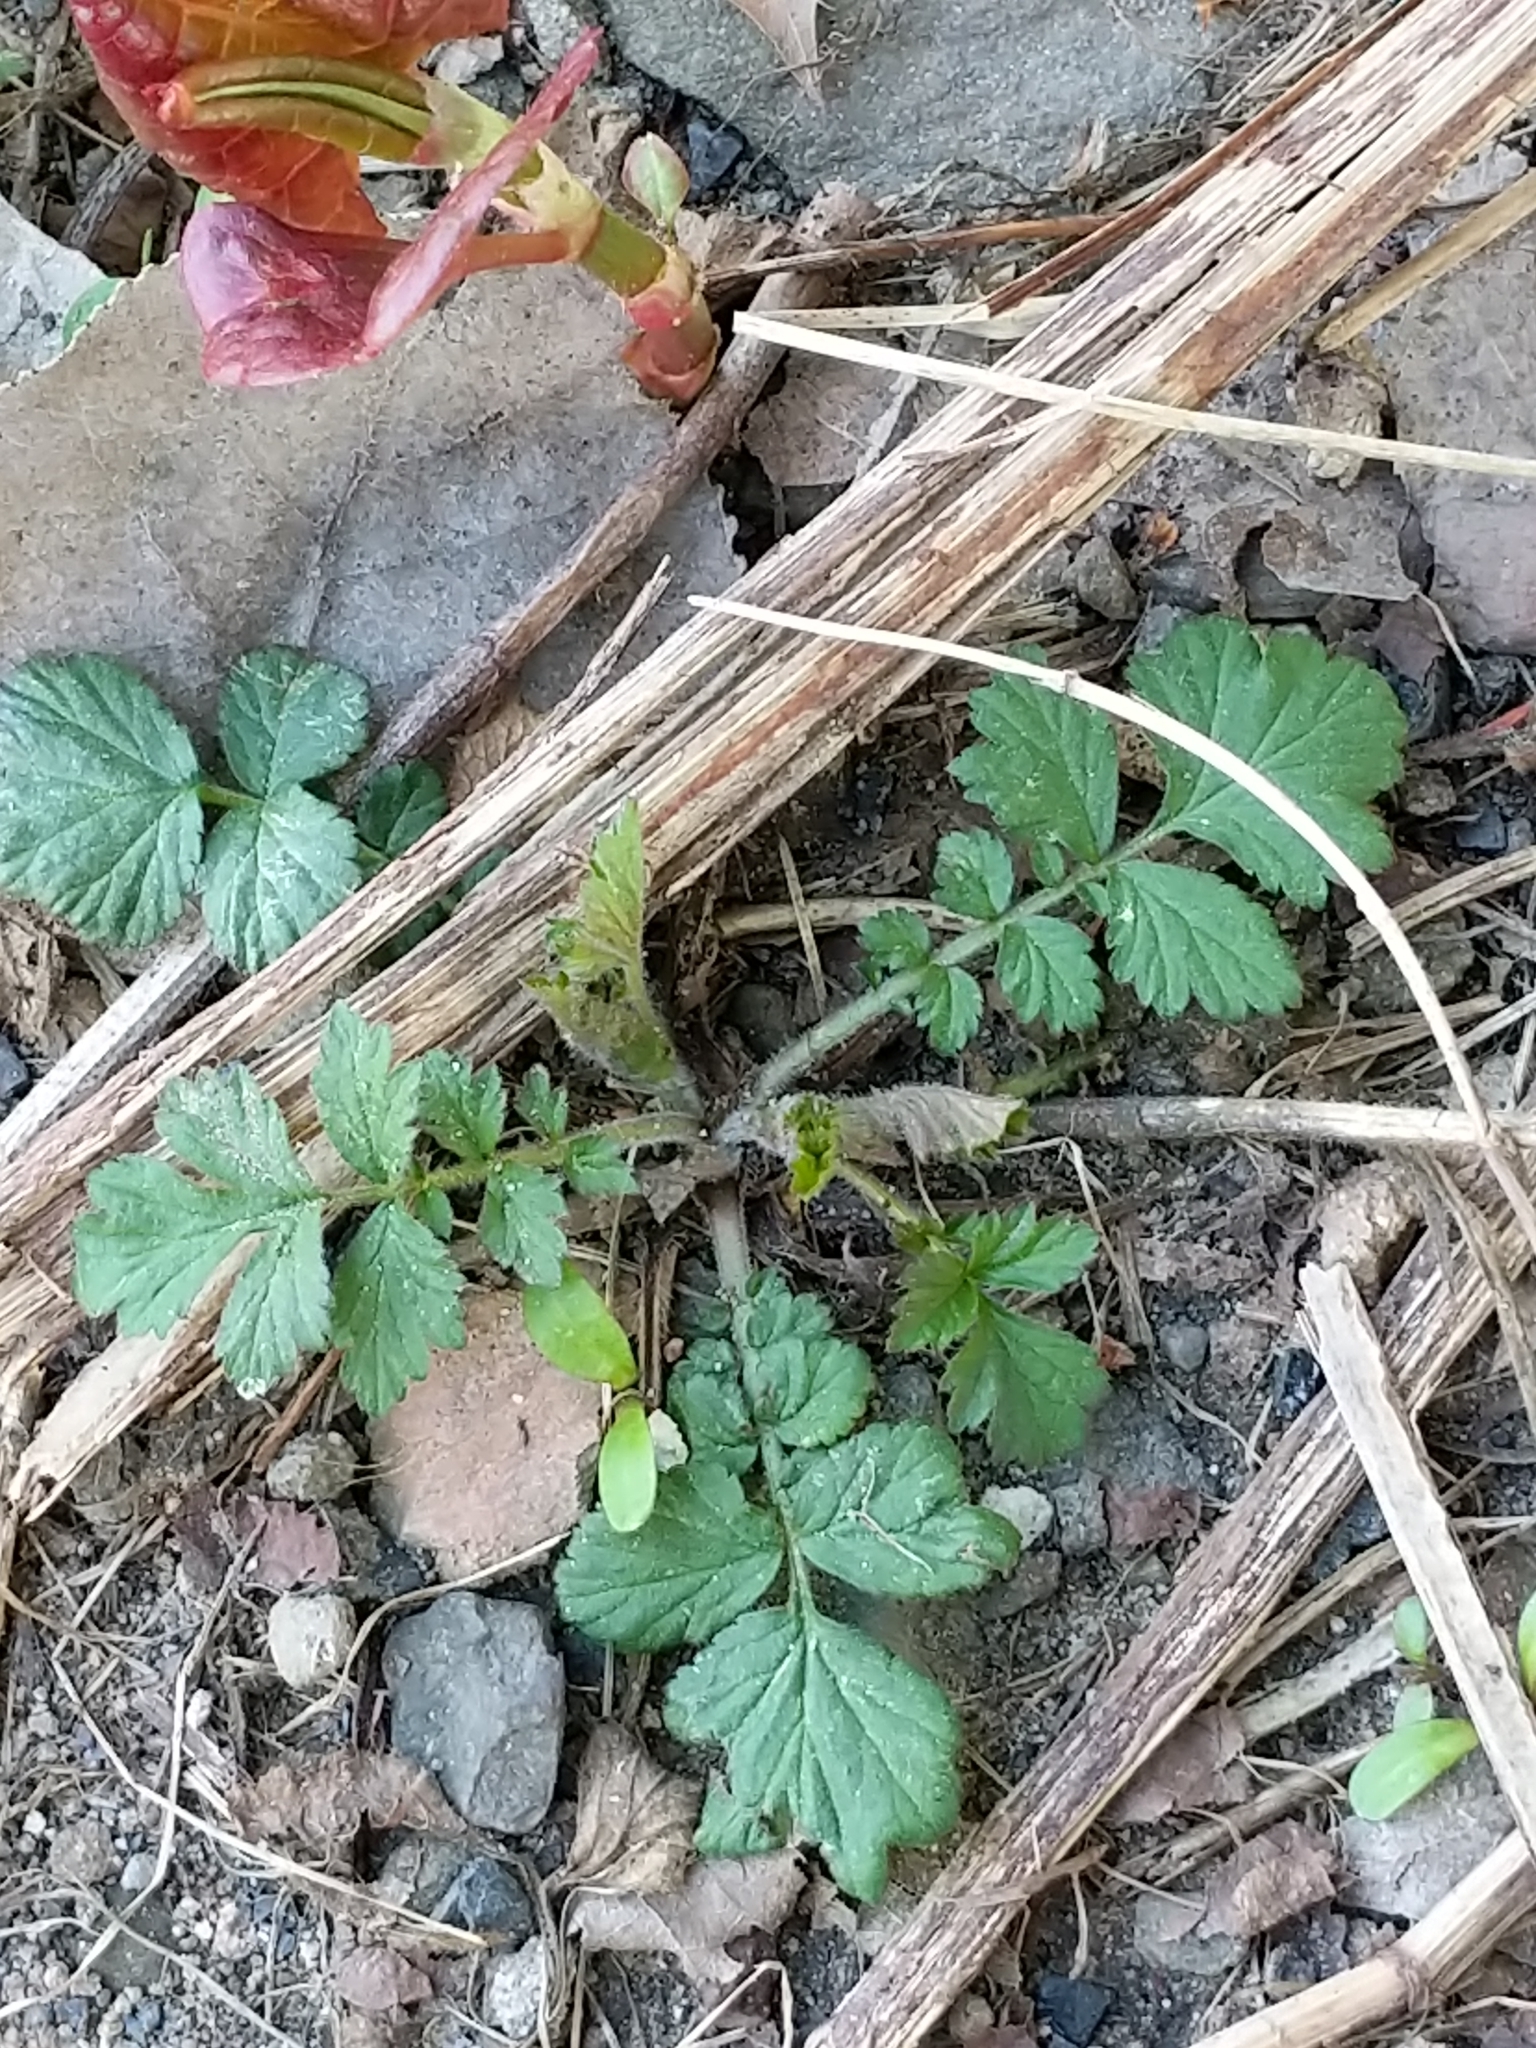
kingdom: Plantae
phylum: Tracheophyta
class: Magnoliopsida
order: Rosales
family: Rosaceae
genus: Geum
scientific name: Geum canadense
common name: White avens
